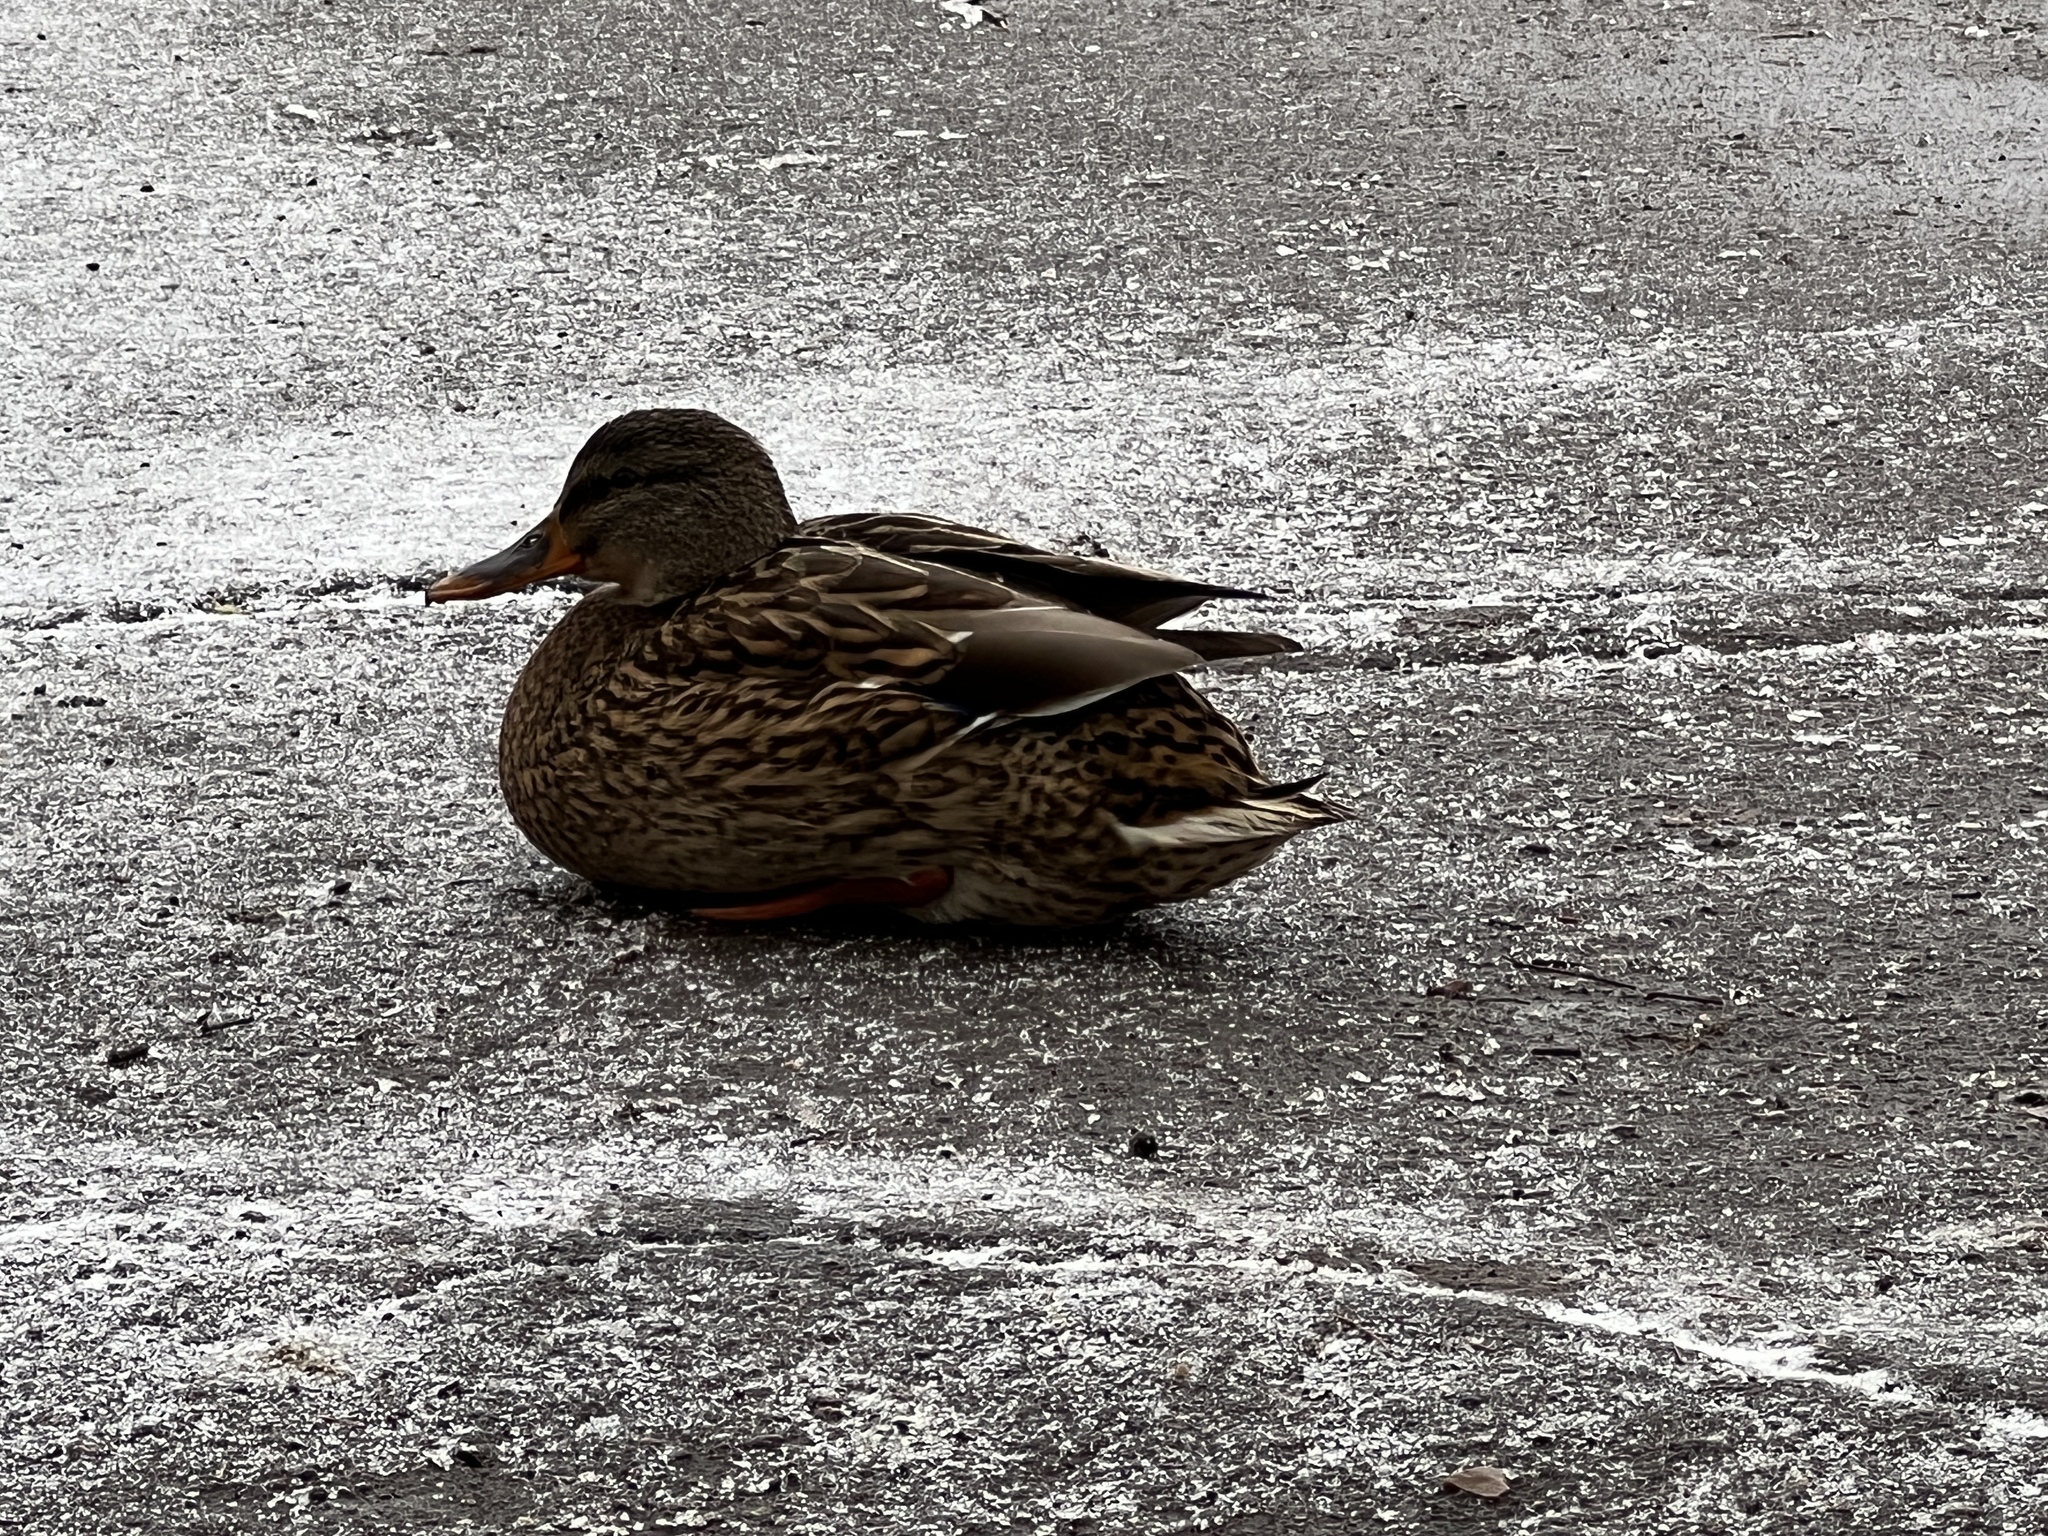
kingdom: Animalia
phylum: Chordata
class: Aves
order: Anseriformes
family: Anatidae
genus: Anas
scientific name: Anas platyrhynchos
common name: Mallard
